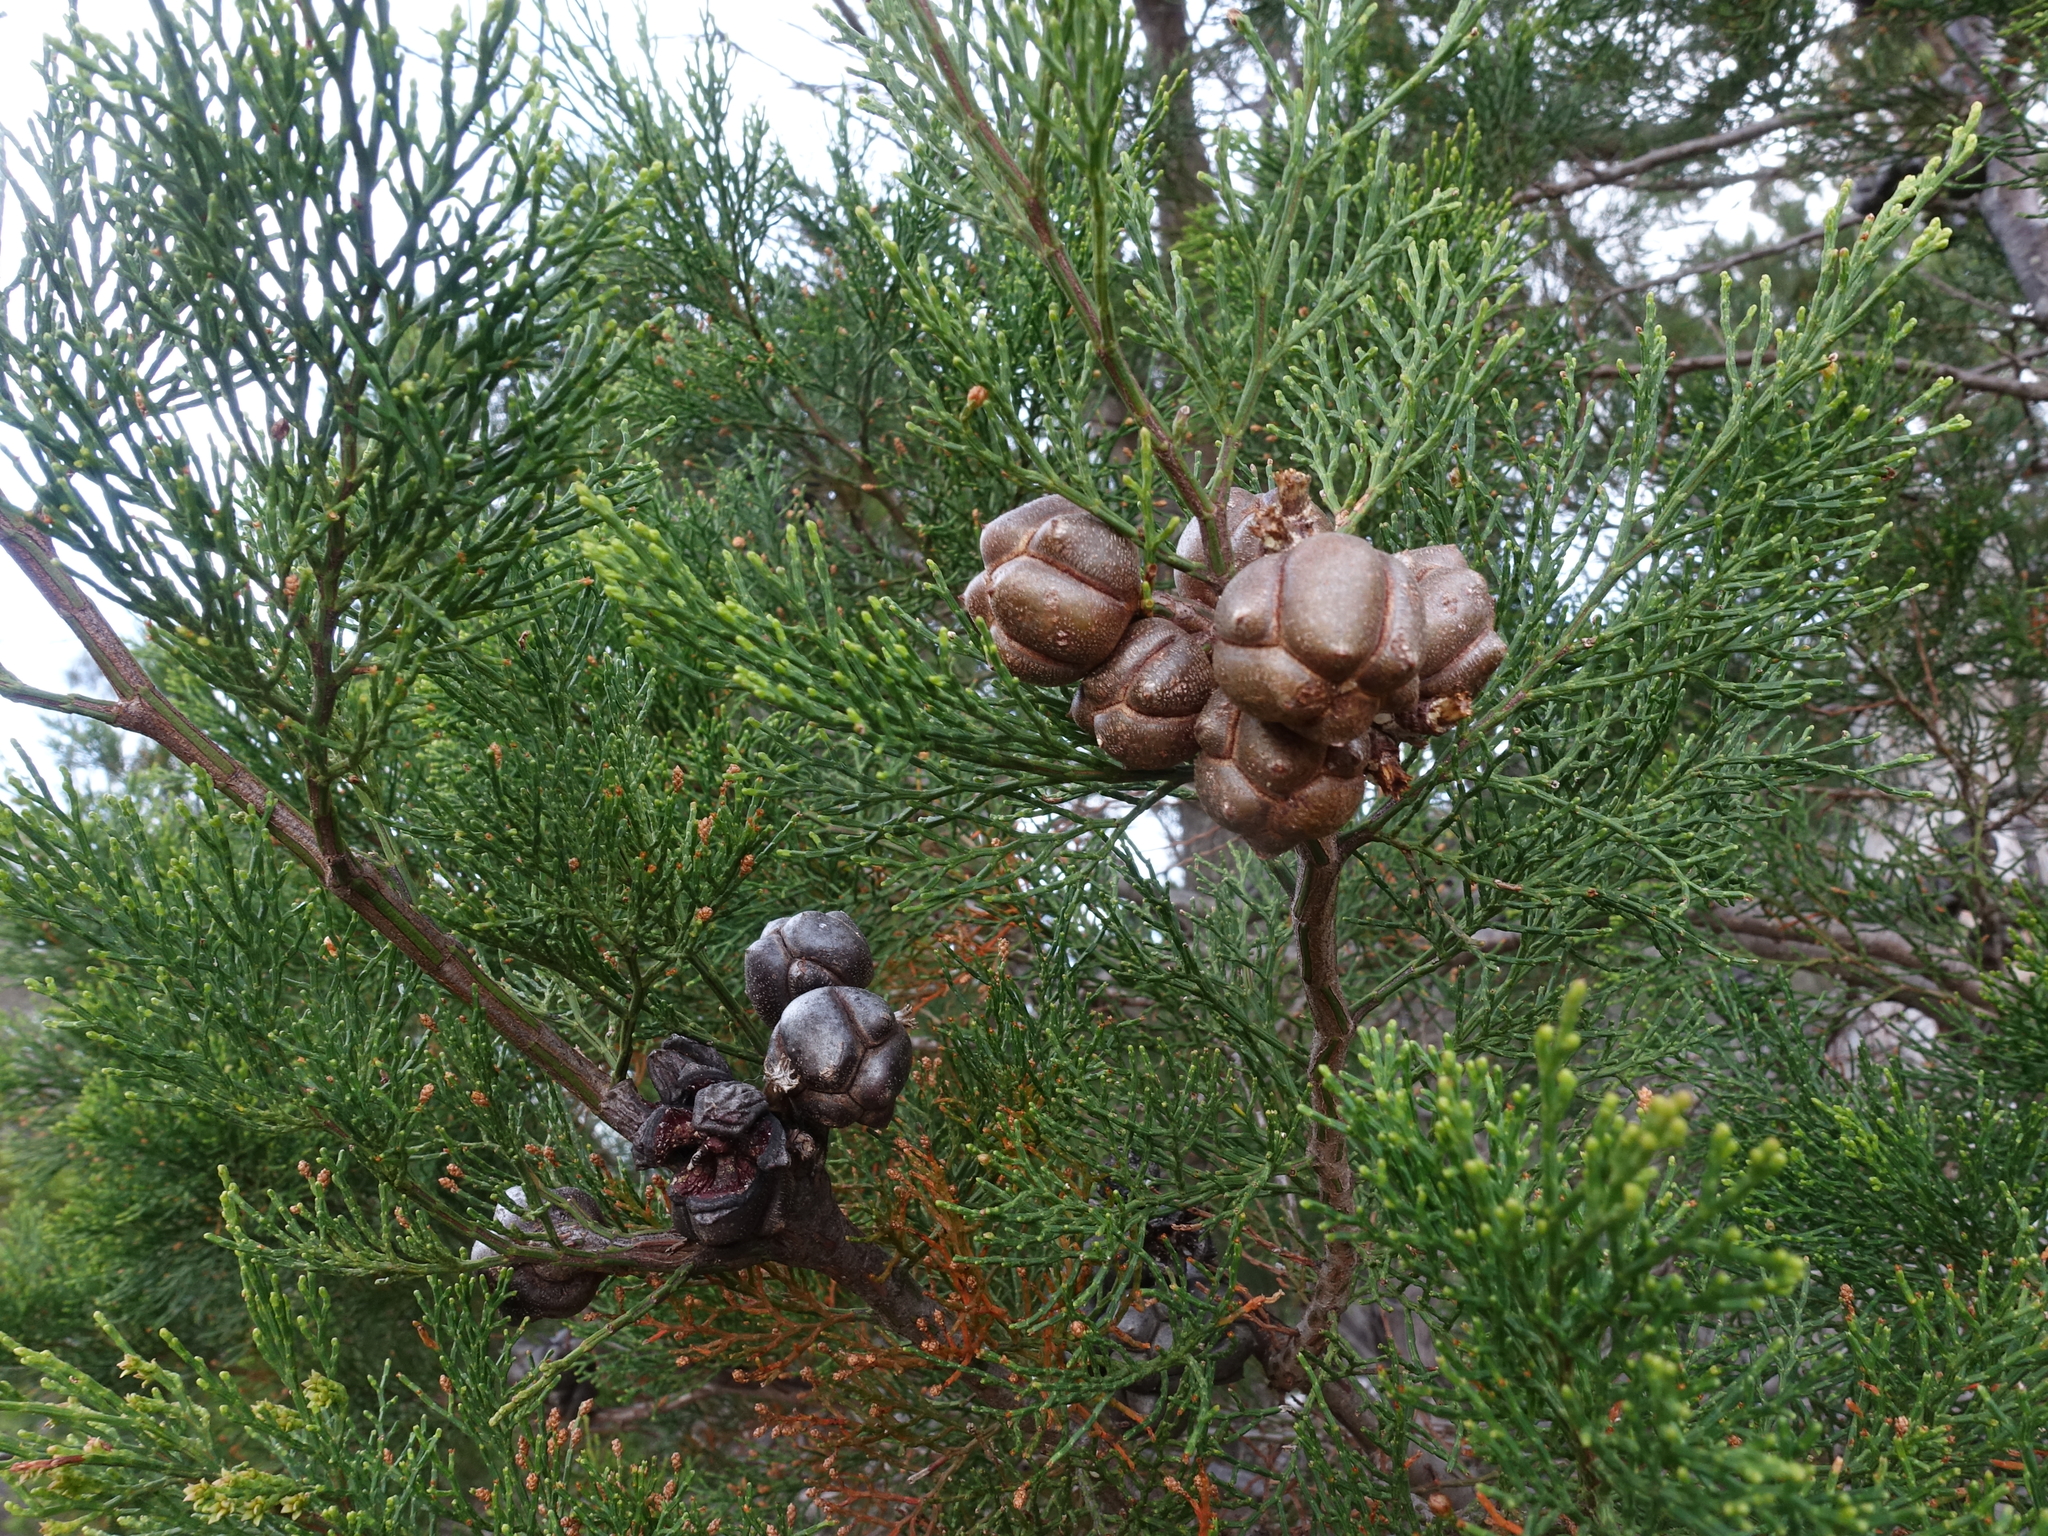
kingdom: Plantae
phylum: Tracheophyta
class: Pinopsida
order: Pinales
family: Cupressaceae
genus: Callitris
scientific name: Callitris rhomboidea
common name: Illawara mountain pine
